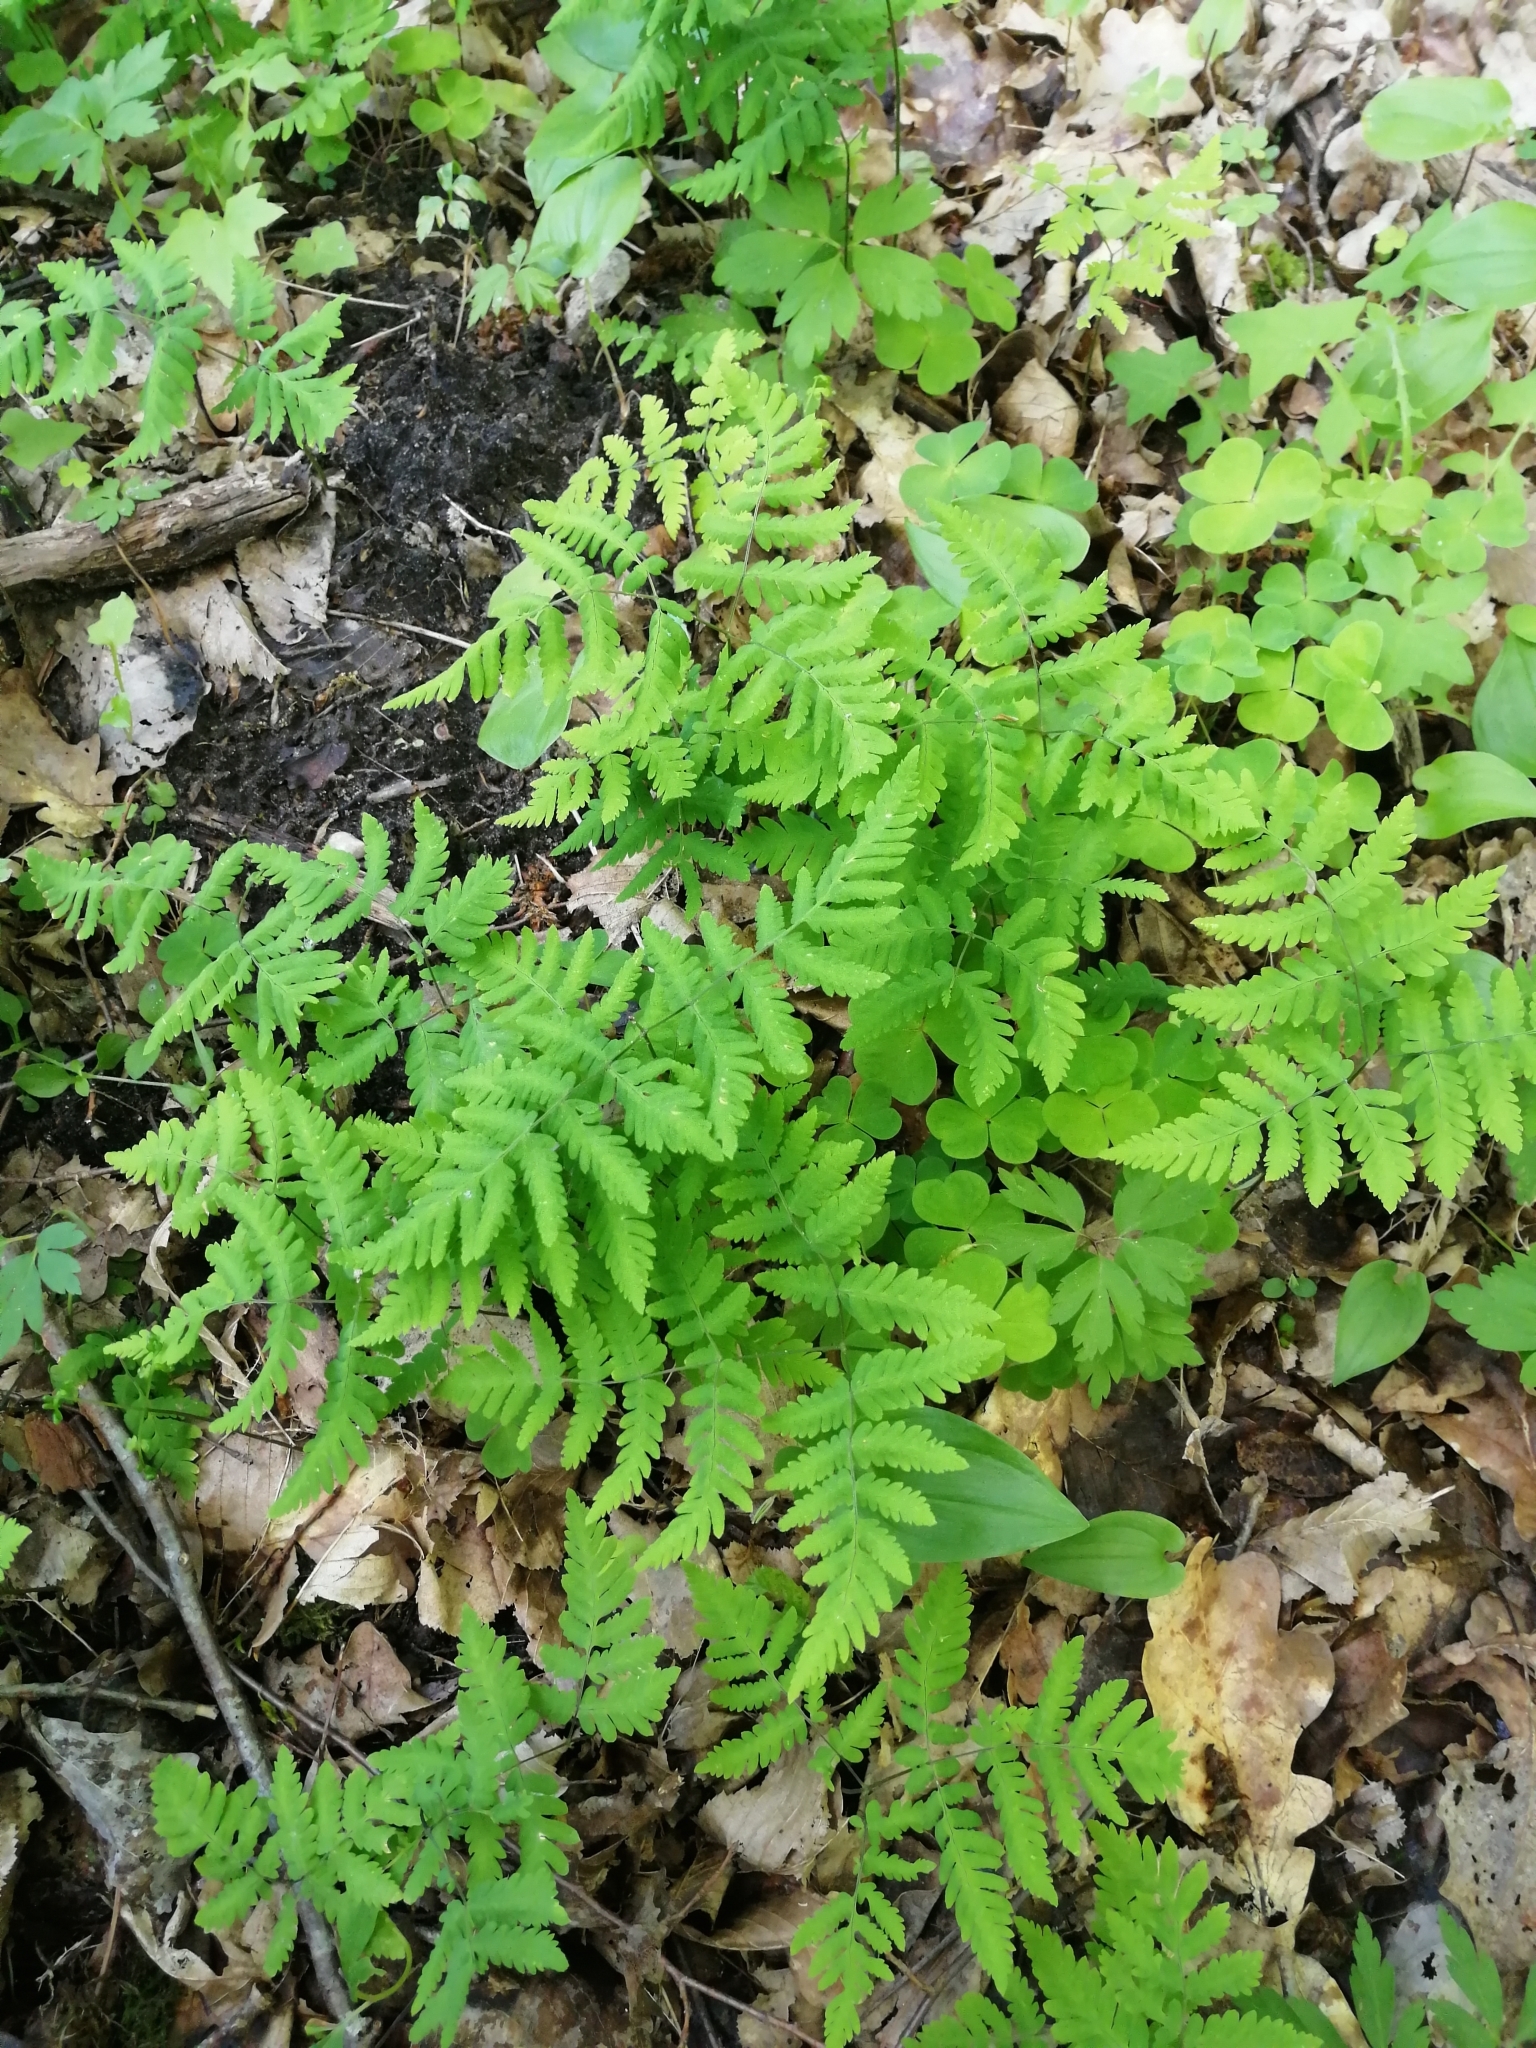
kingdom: Plantae
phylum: Tracheophyta
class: Polypodiopsida
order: Polypodiales
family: Cystopteridaceae
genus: Gymnocarpium
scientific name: Gymnocarpium dryopteris
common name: Oak fern
